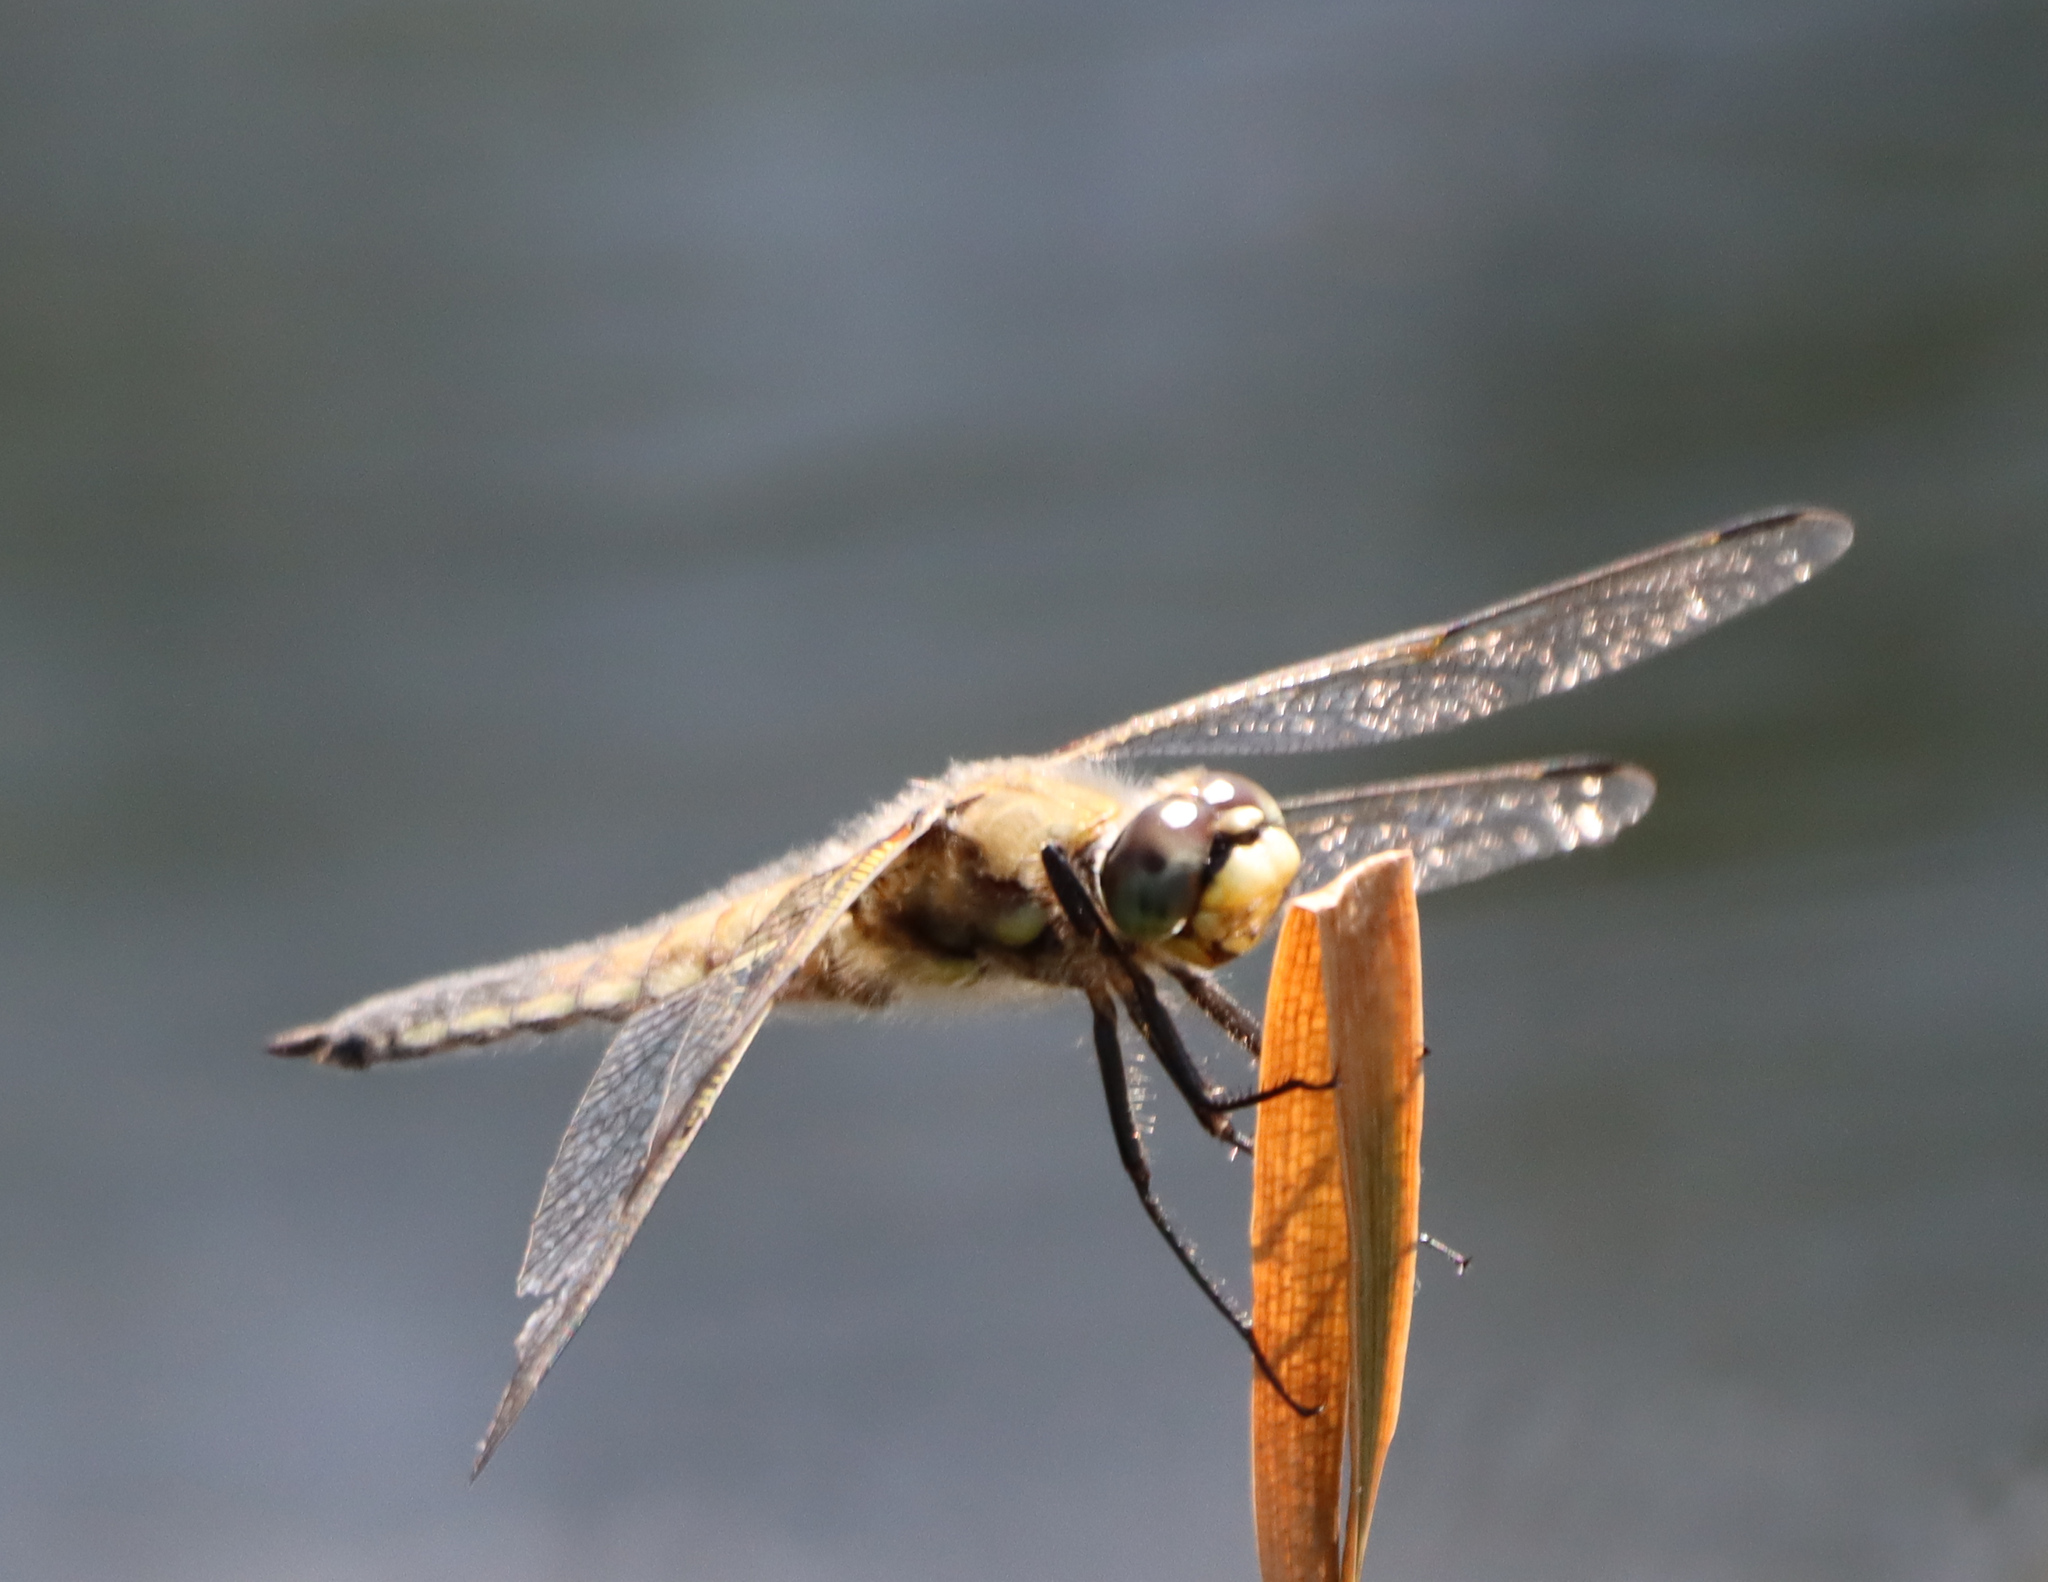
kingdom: Animalia
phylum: Arthropoda
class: Insecta
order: Odonata
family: Libellulidae
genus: Libellula
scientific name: Libellula quadrimaculata
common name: Four-spotted chaser
